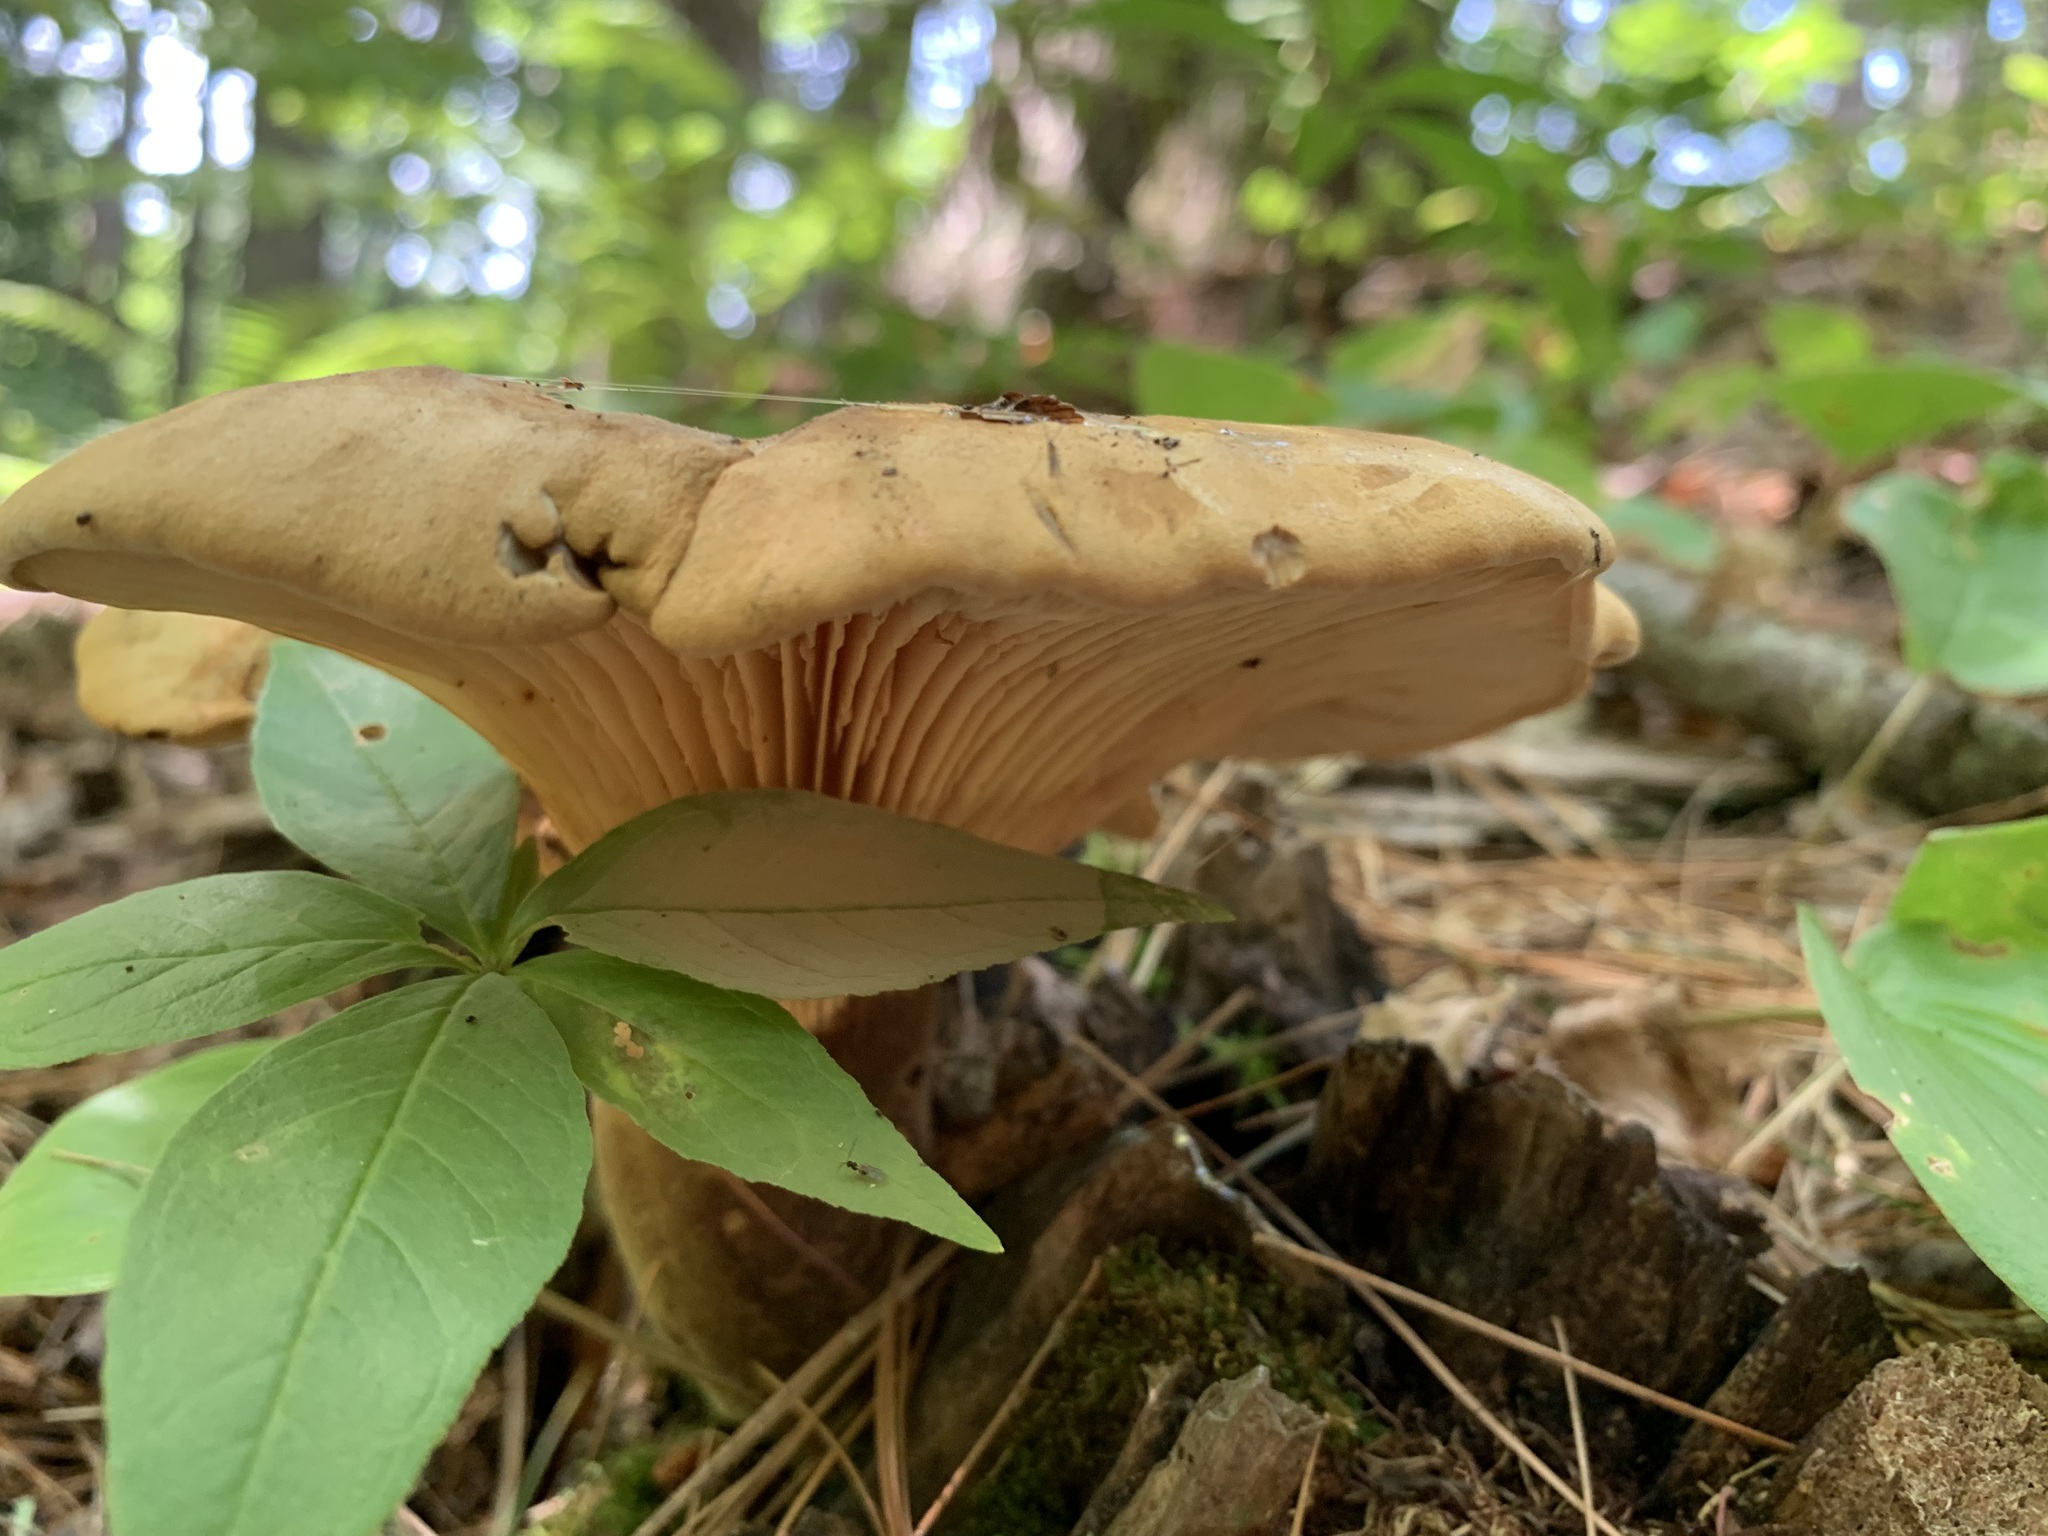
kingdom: Fungi
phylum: Basidiomycota
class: Agaricomycetes
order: Boletales
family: Tapinellaceae
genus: Tapinella
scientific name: Tapinella atrotomentosa
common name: Velvet rollrim
